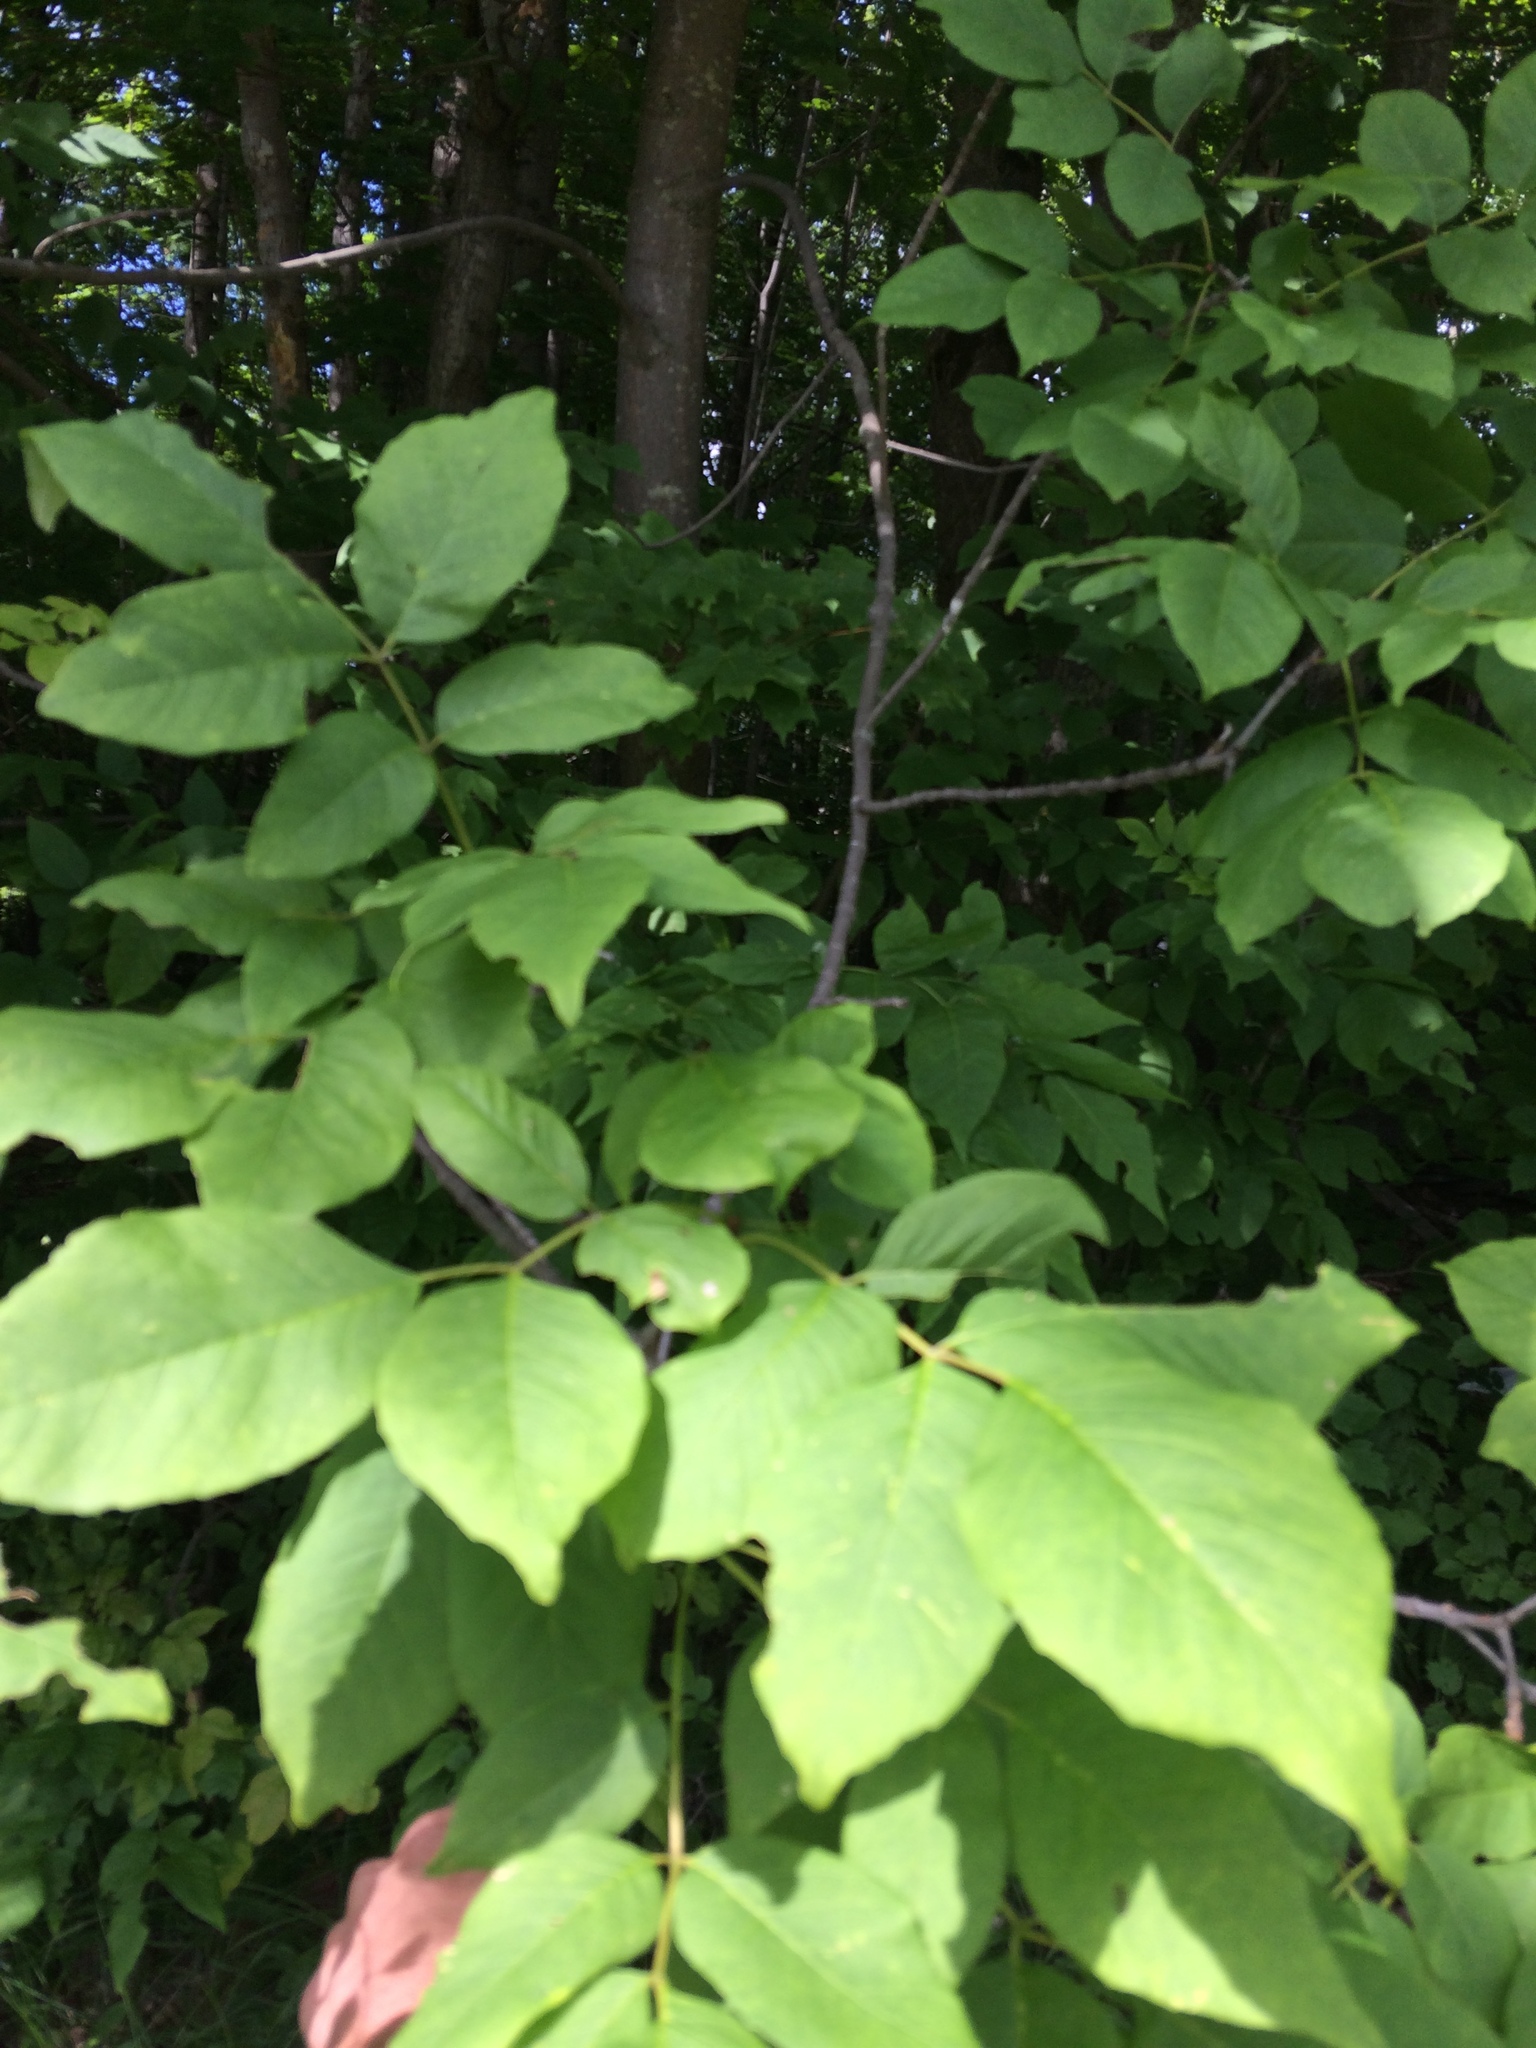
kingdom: Plantae
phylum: Tracheophyta
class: Magnoliopsida
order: Lamiales
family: Oleaceae
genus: Fraxinus
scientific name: Fraxinus americana
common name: White ash
